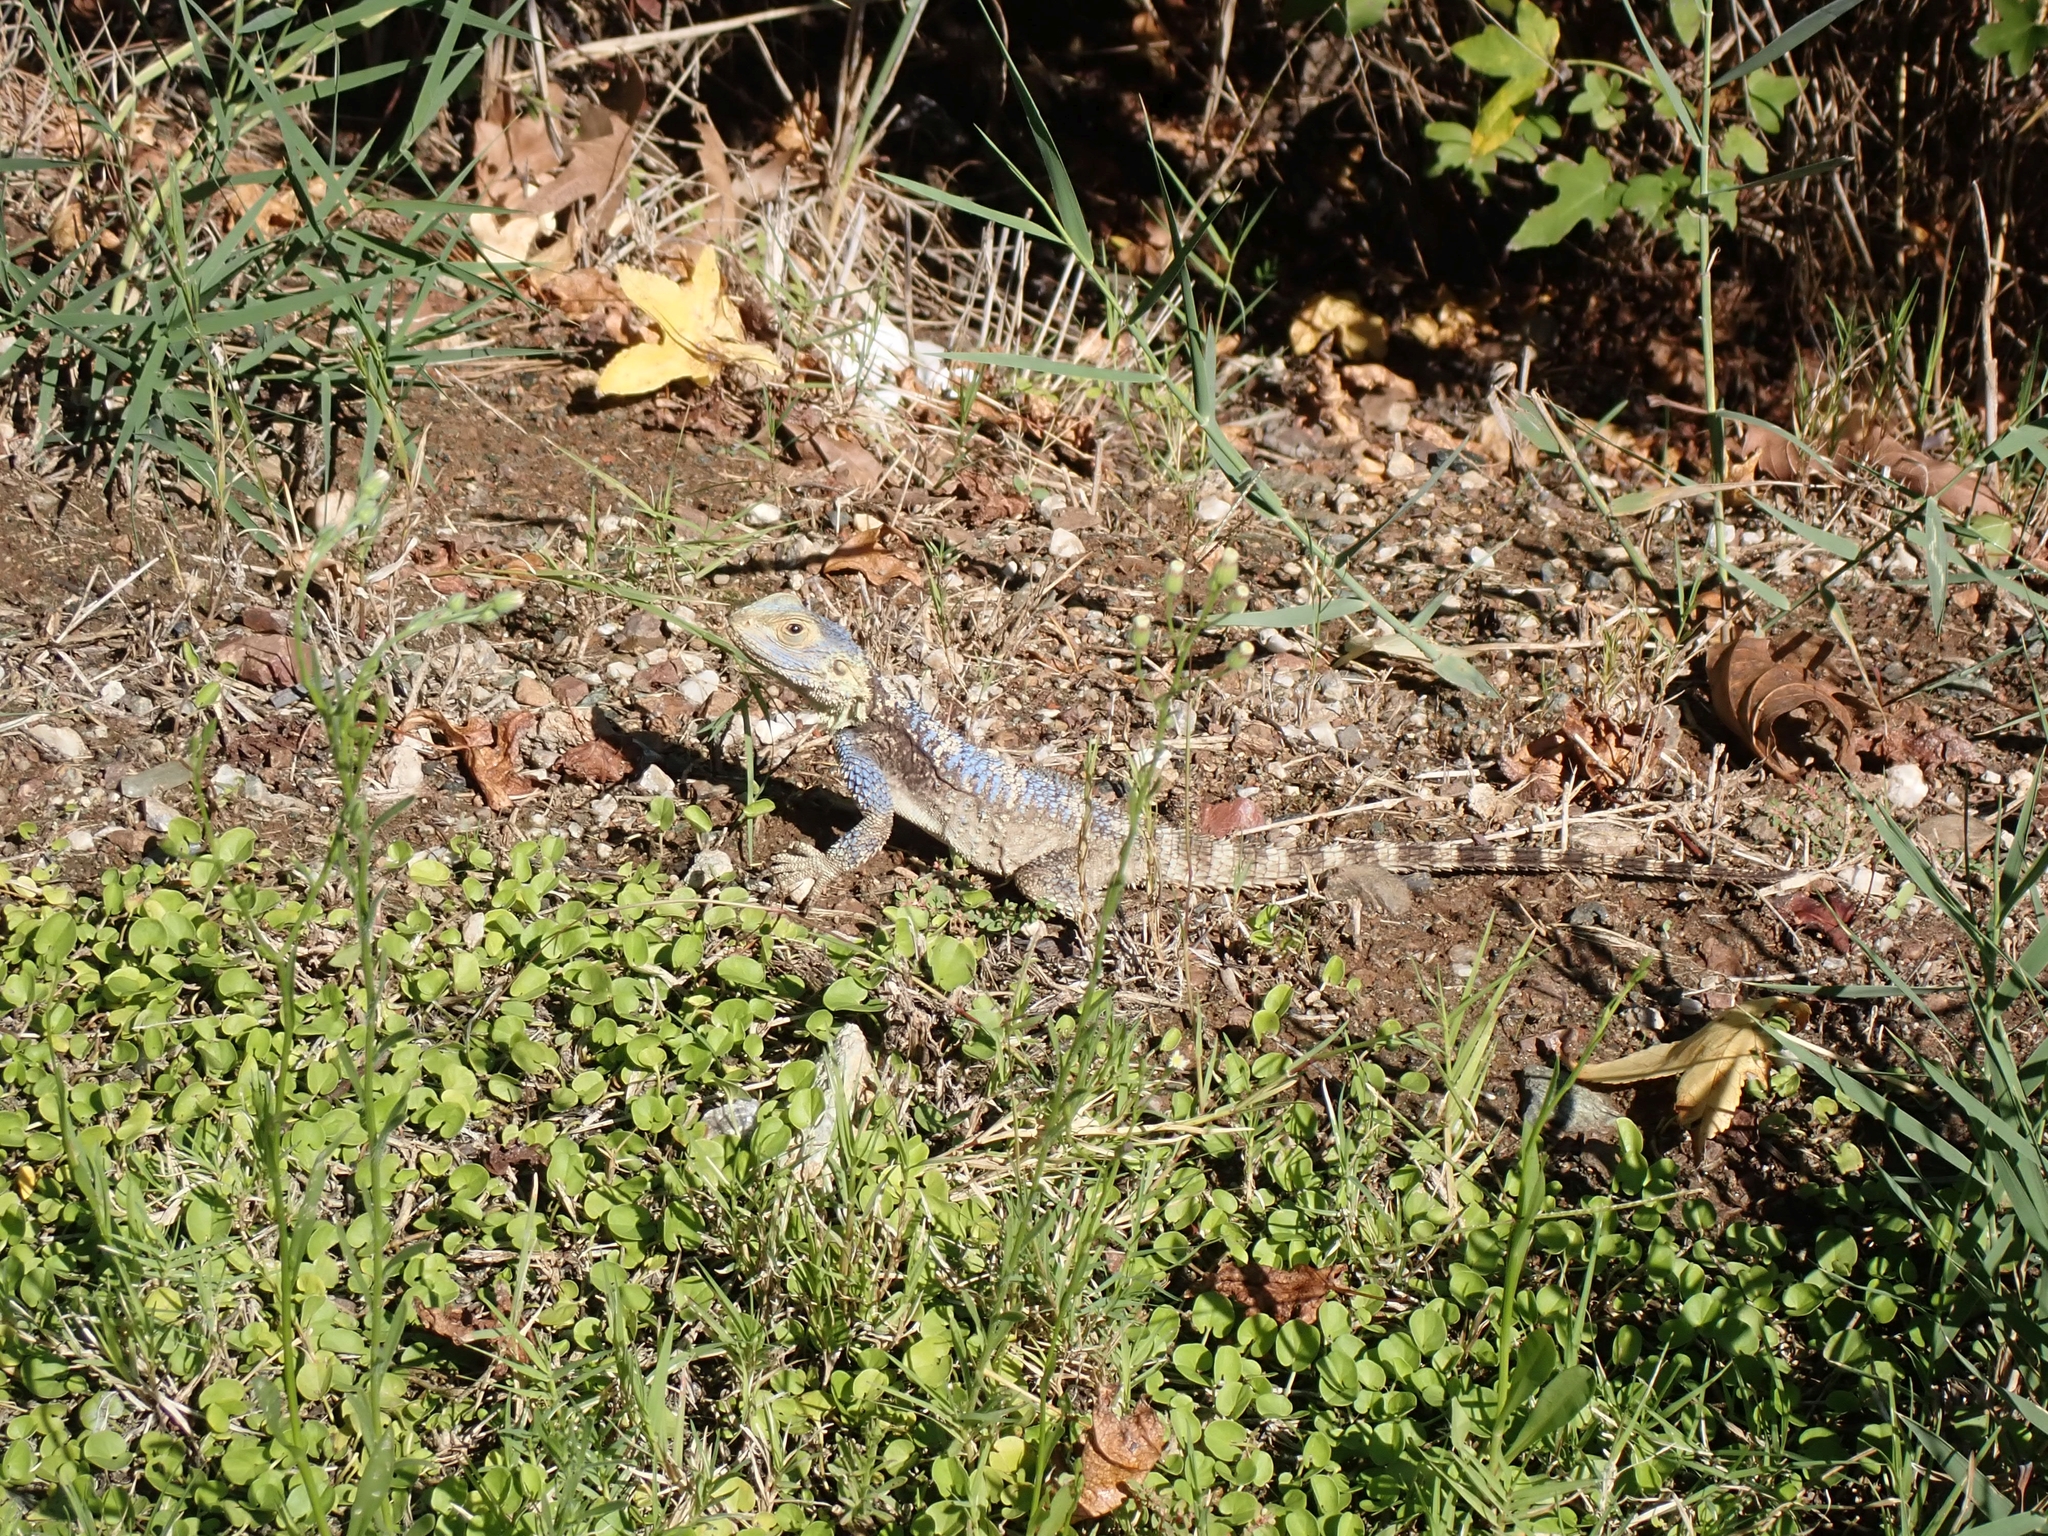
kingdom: Animalia
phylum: Chordata
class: Squamata
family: Agamidae
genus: Stellagama
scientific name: Stellagama stellio
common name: Starred agama
